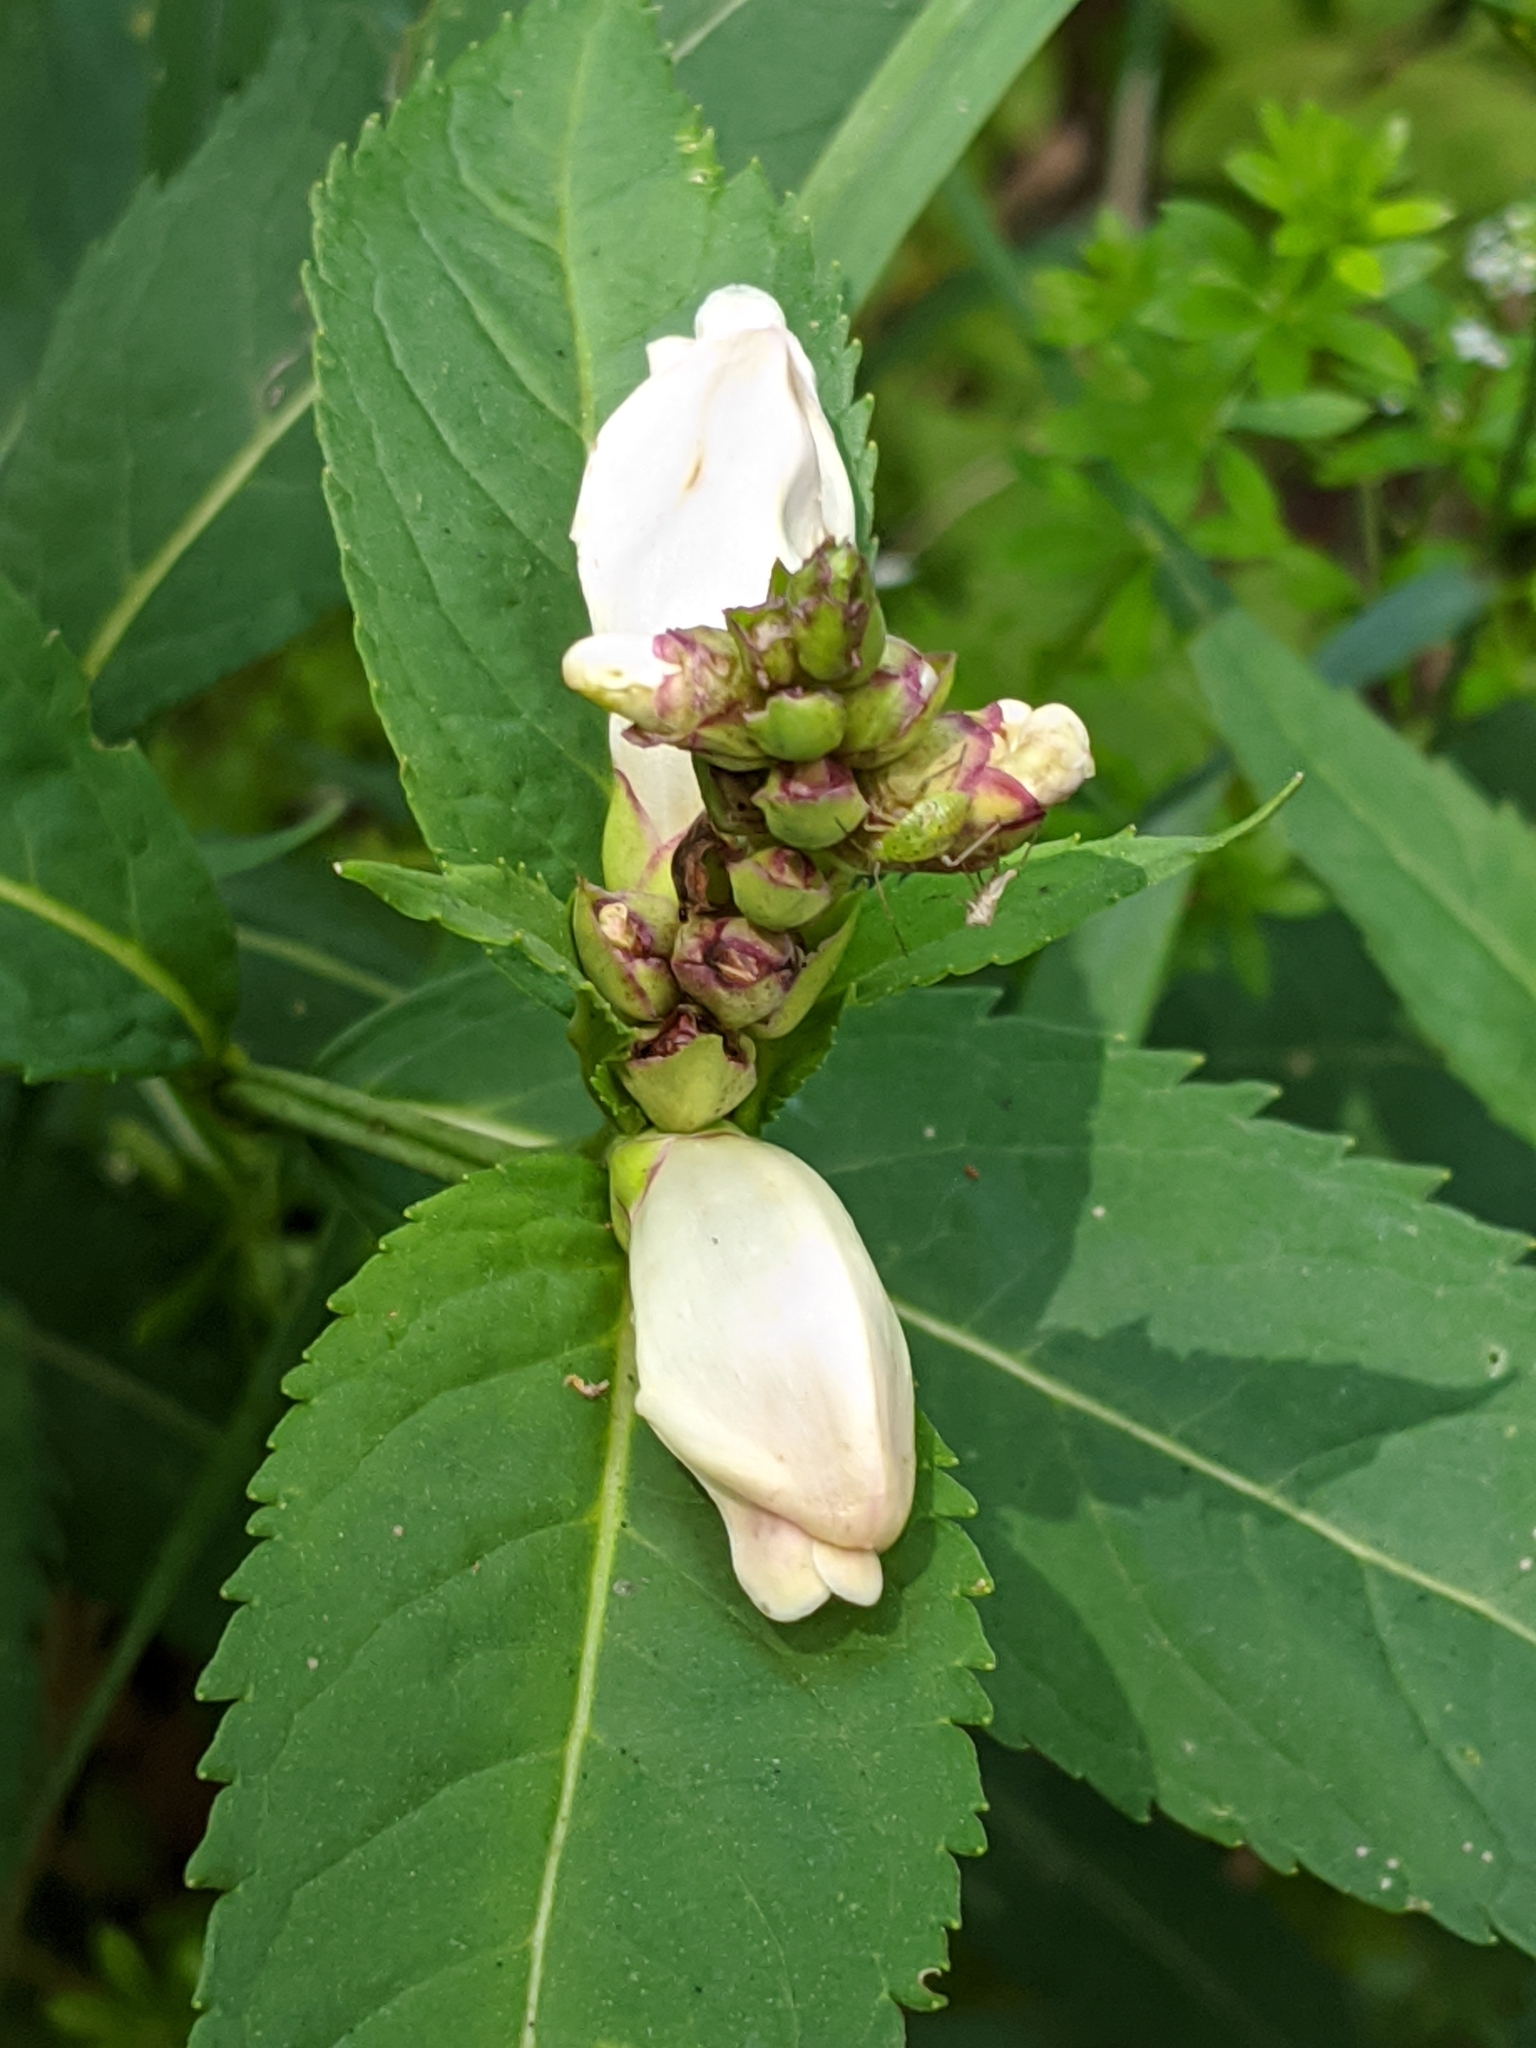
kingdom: Plantae
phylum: Tracheophyta
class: Magnoliopsida
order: Lamiales
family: Plantaginaceae
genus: Chelone
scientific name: Chelone glabra
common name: Snakehead
